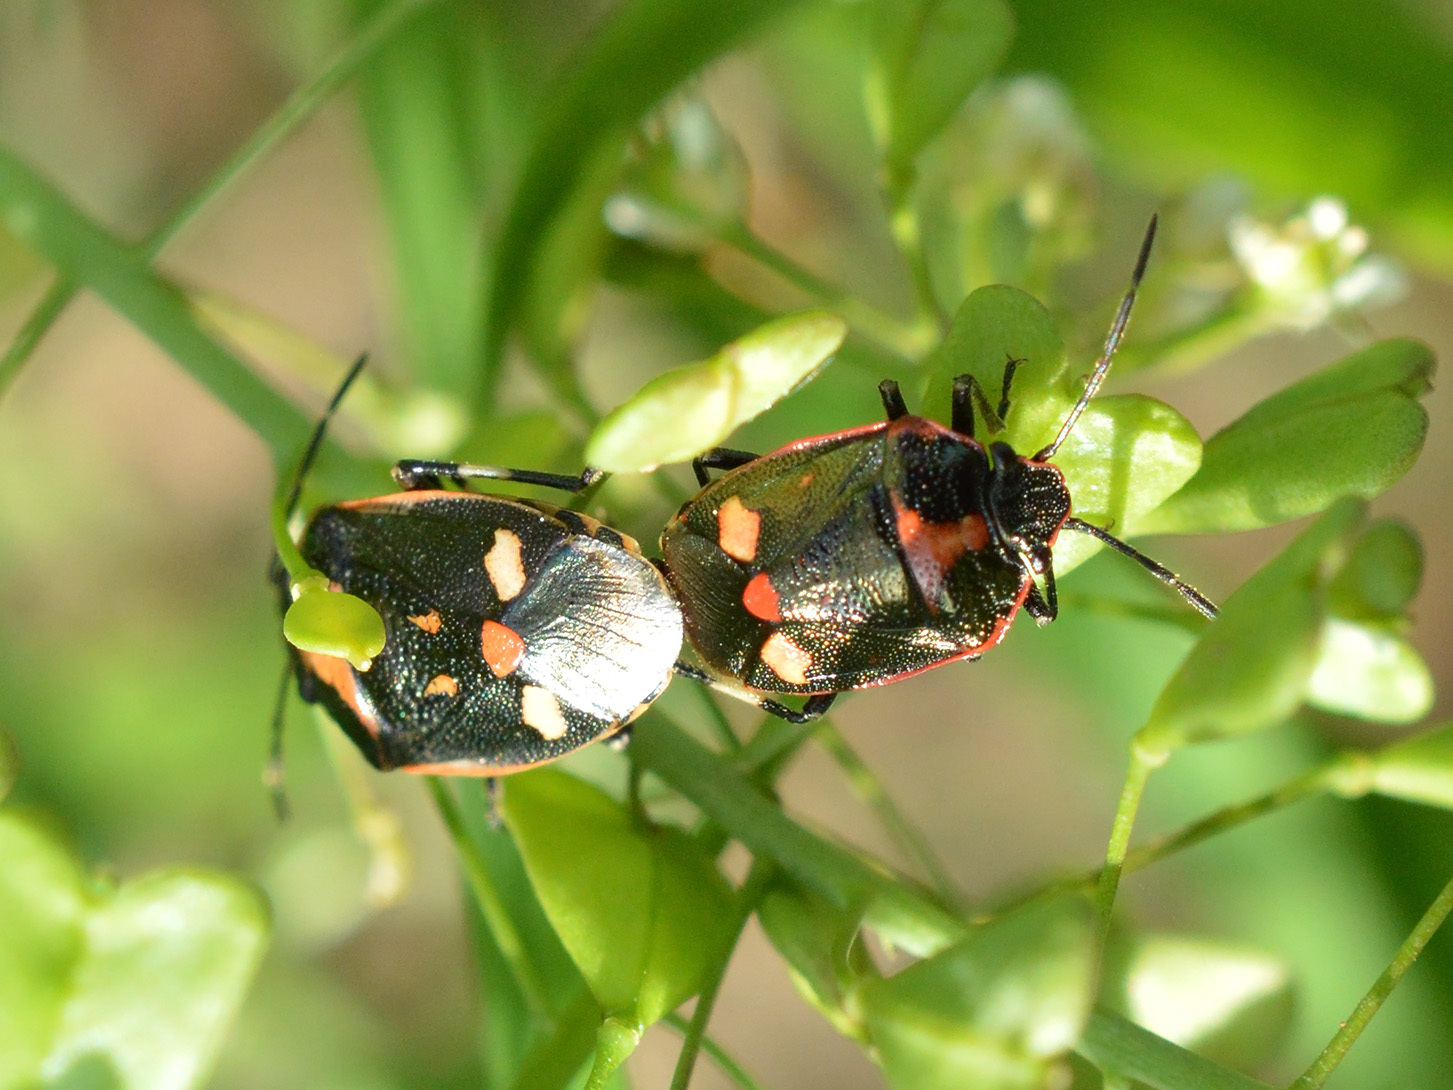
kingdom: Animalia
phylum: Arthropoda
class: Insecta
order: Hemiptera
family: Pentatomidae
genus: Eurydema
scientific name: Eurydema oleracea
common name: Cabbage bug
